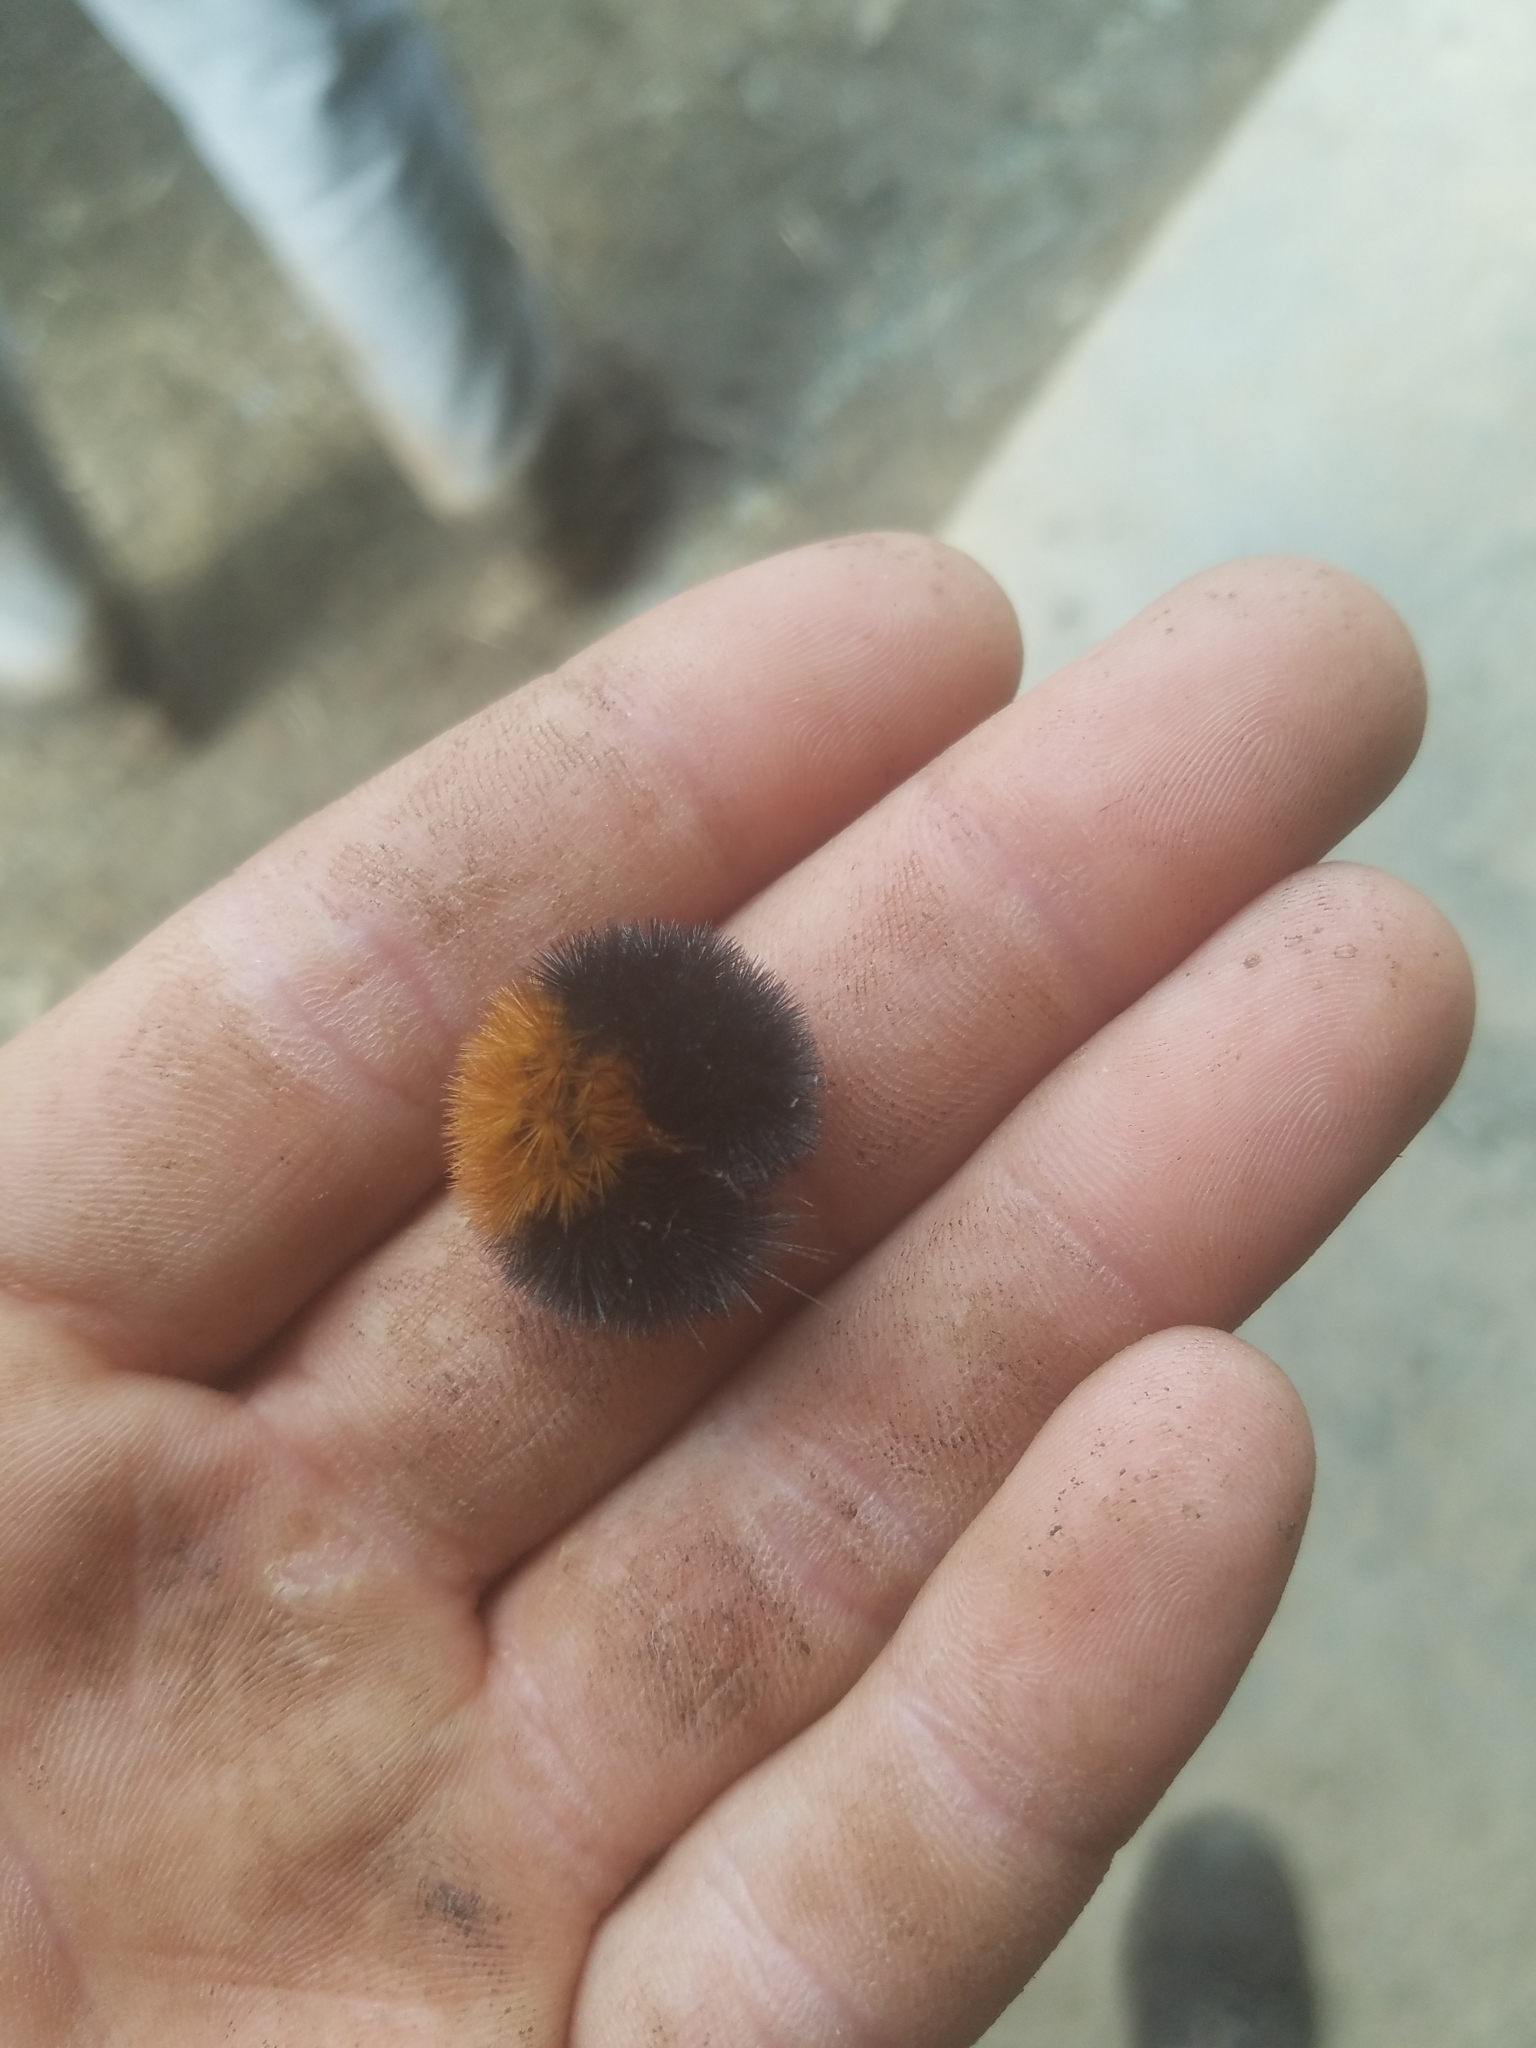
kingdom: Animalia
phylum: Arthropoda
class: Insecta
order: Lepidoptera
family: Erebidae
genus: Pyrrharctia
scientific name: Pyrrharctia isabella
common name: Isabella tiger moth
